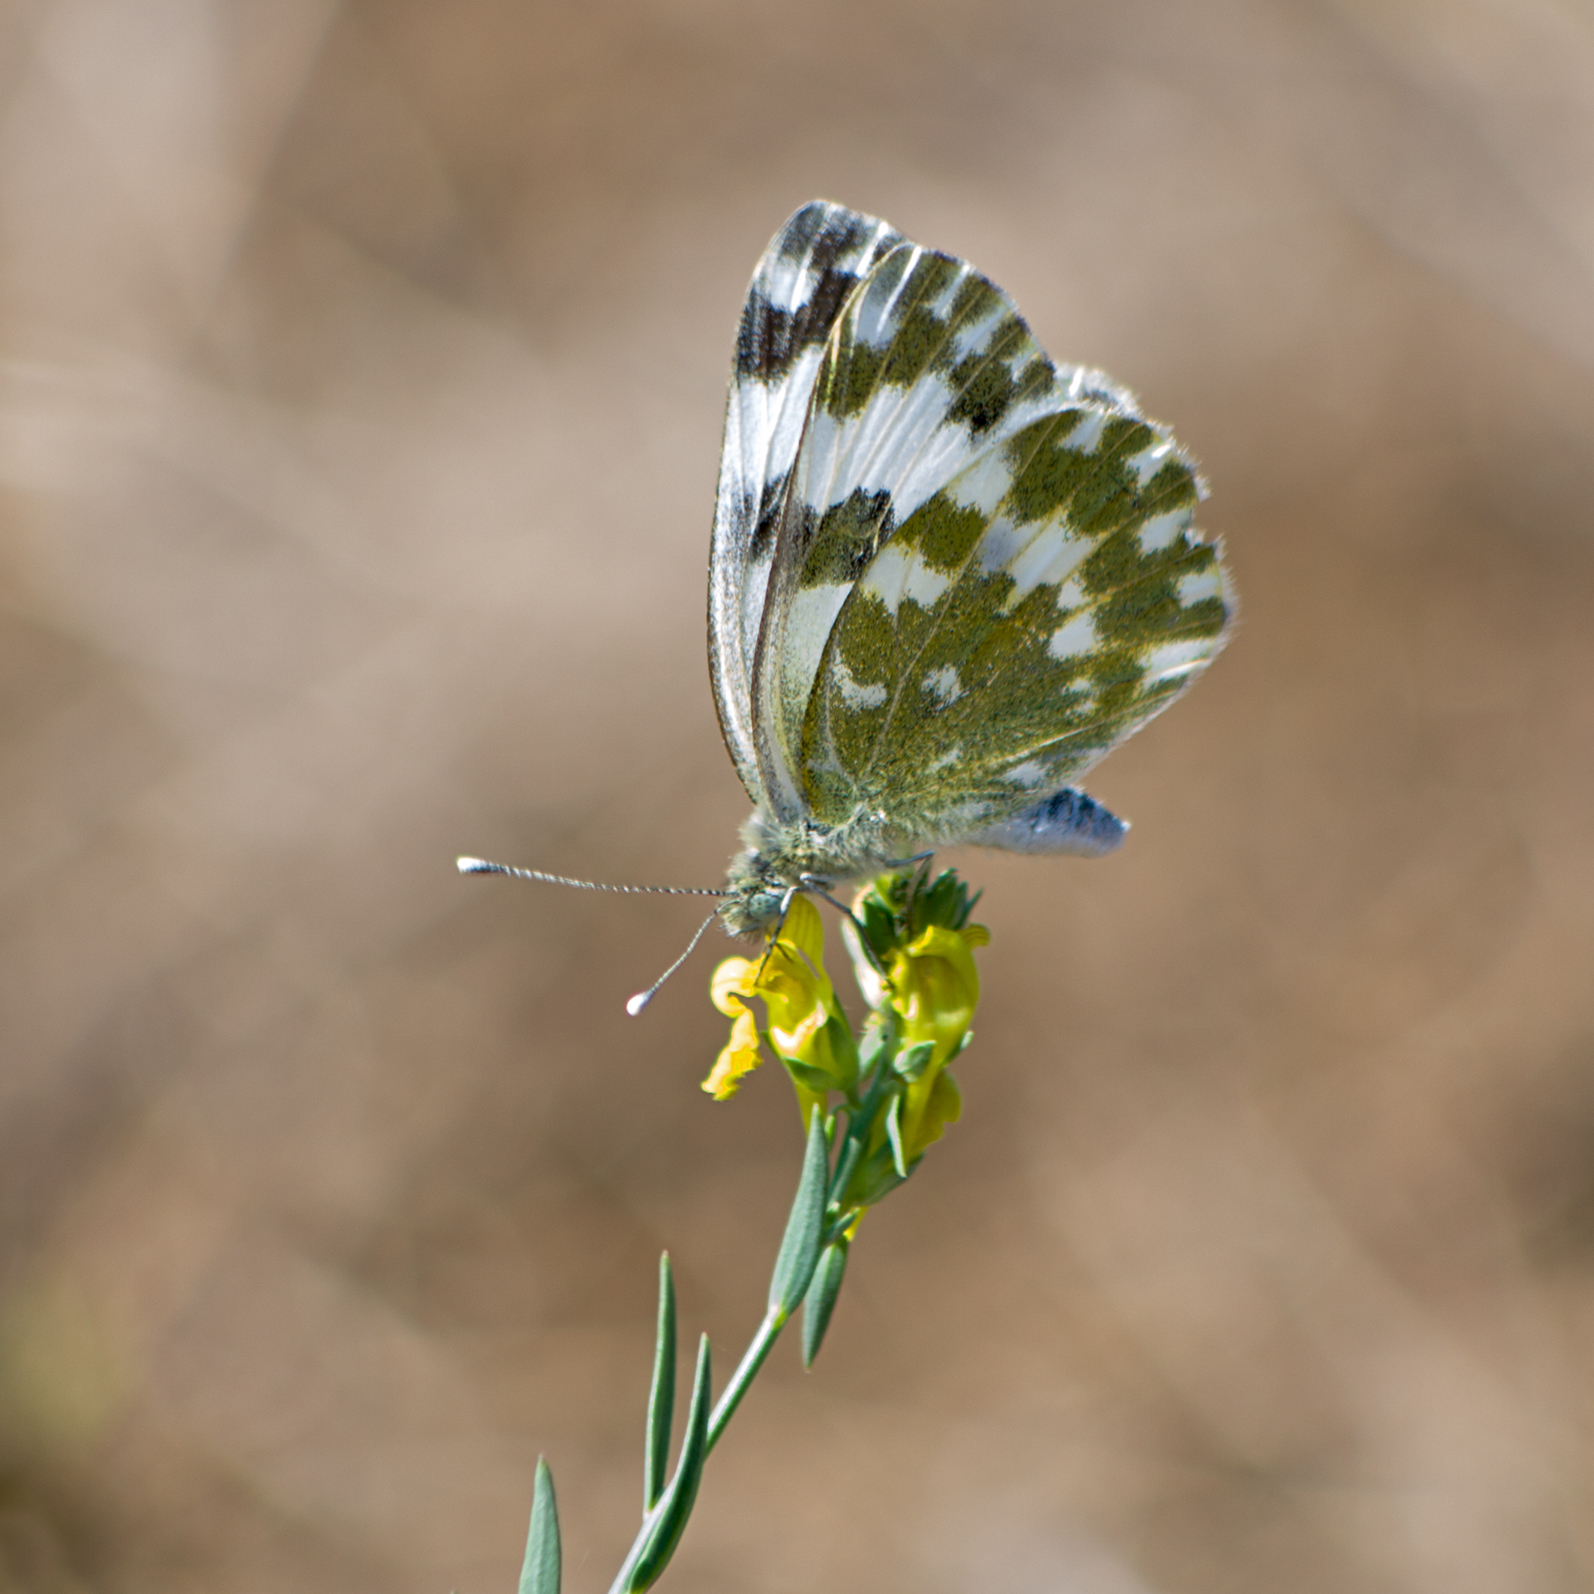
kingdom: Animalia
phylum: Arthropoda
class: Insecta
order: Lepidoptera
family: Pieridae
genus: Pontia
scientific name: Pontia edusa
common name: Eastern bath white
